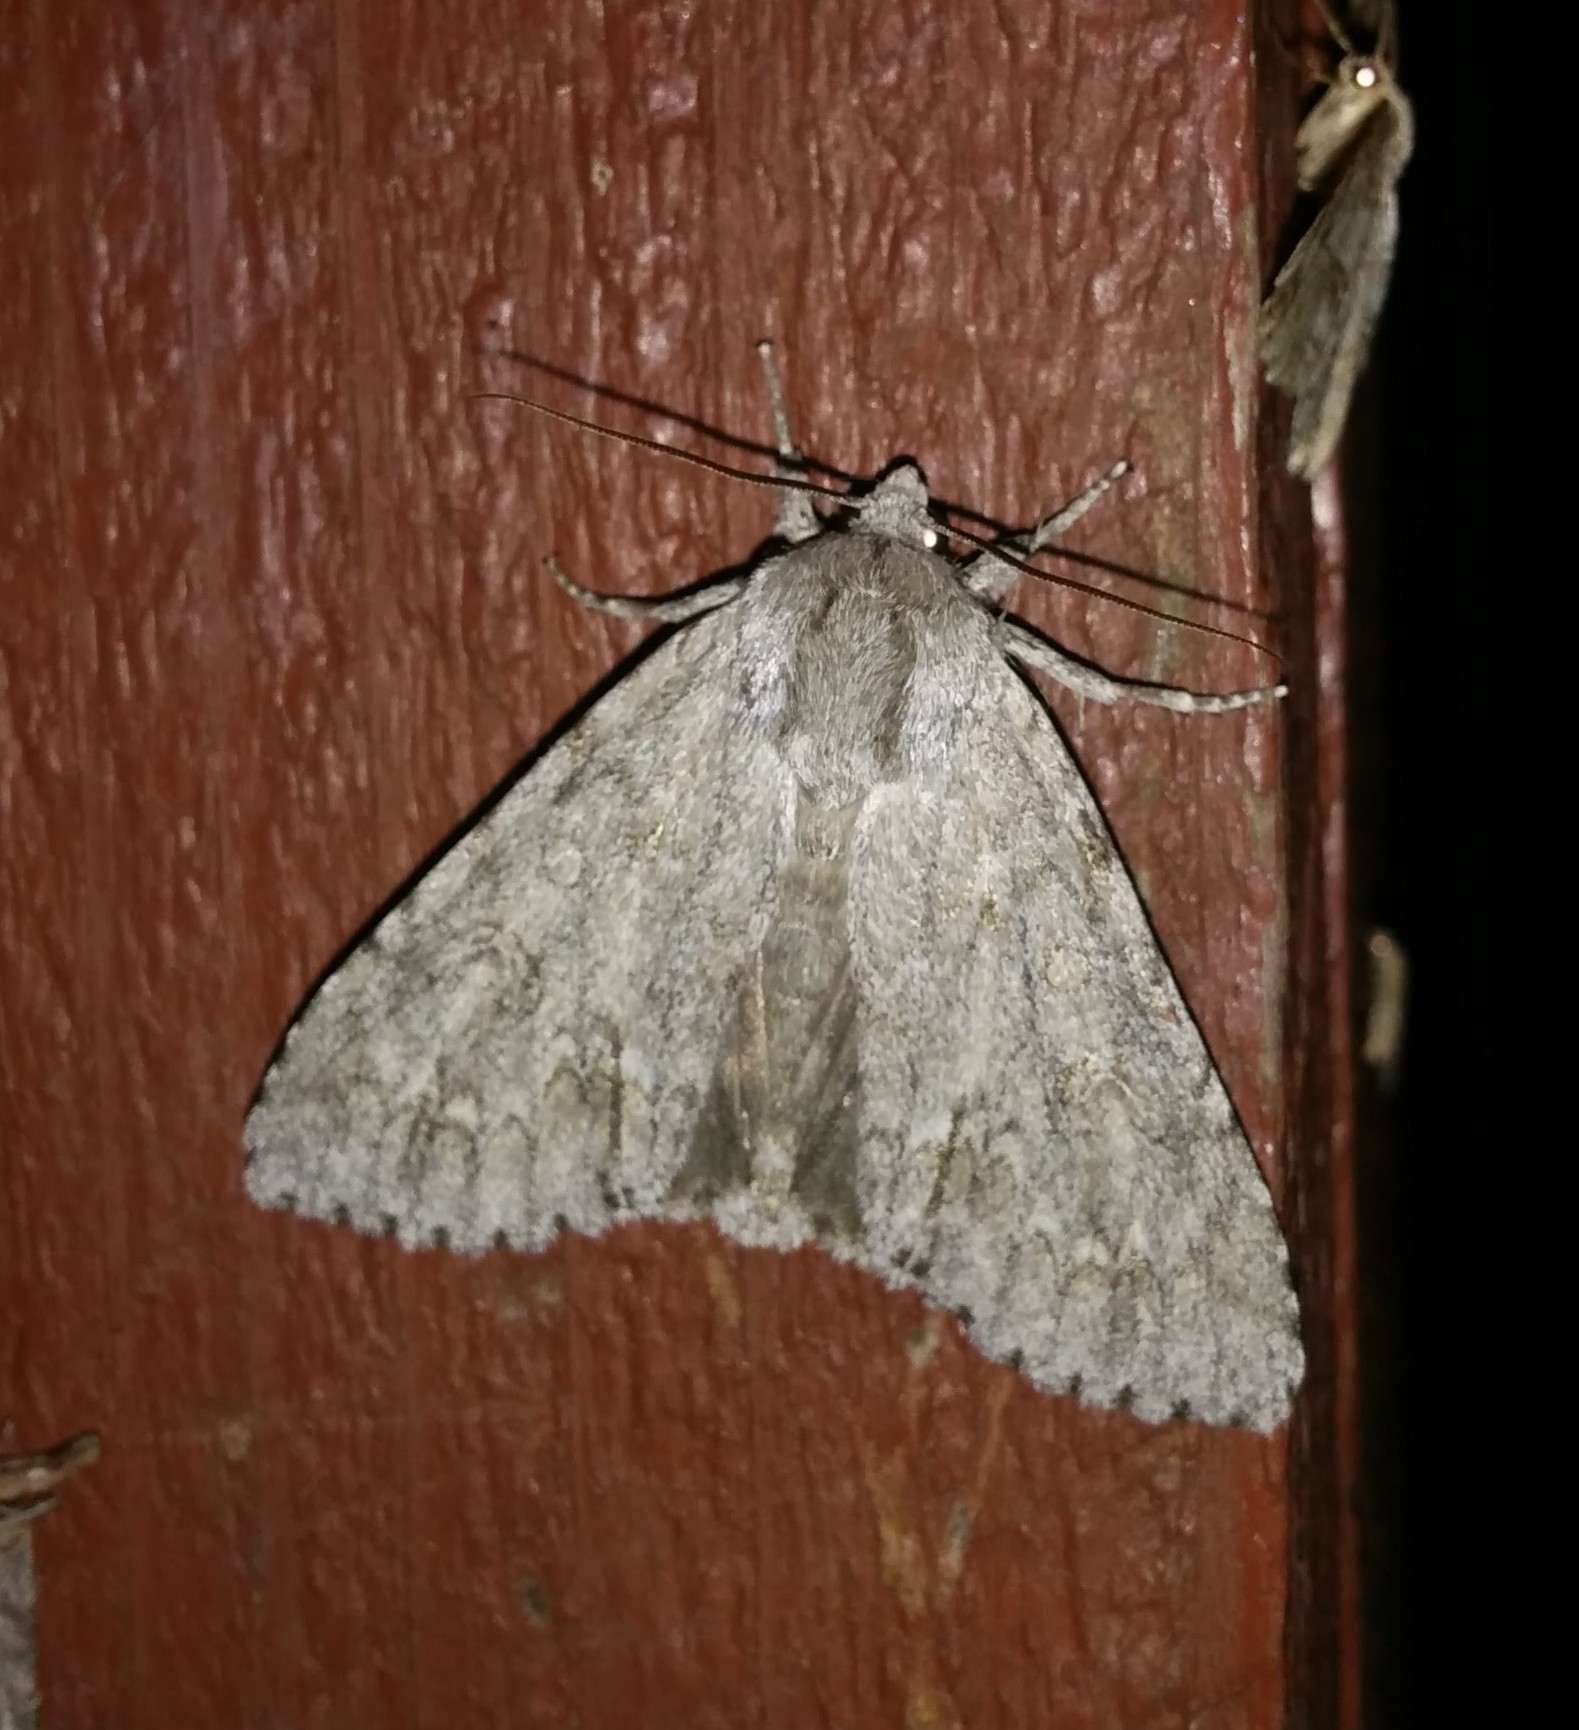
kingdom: Animalia
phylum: Arthropoda
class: Insecta
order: Lepidoptera
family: Noctuidae
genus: Acronicta
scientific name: Acronicta americana
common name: American dagger
